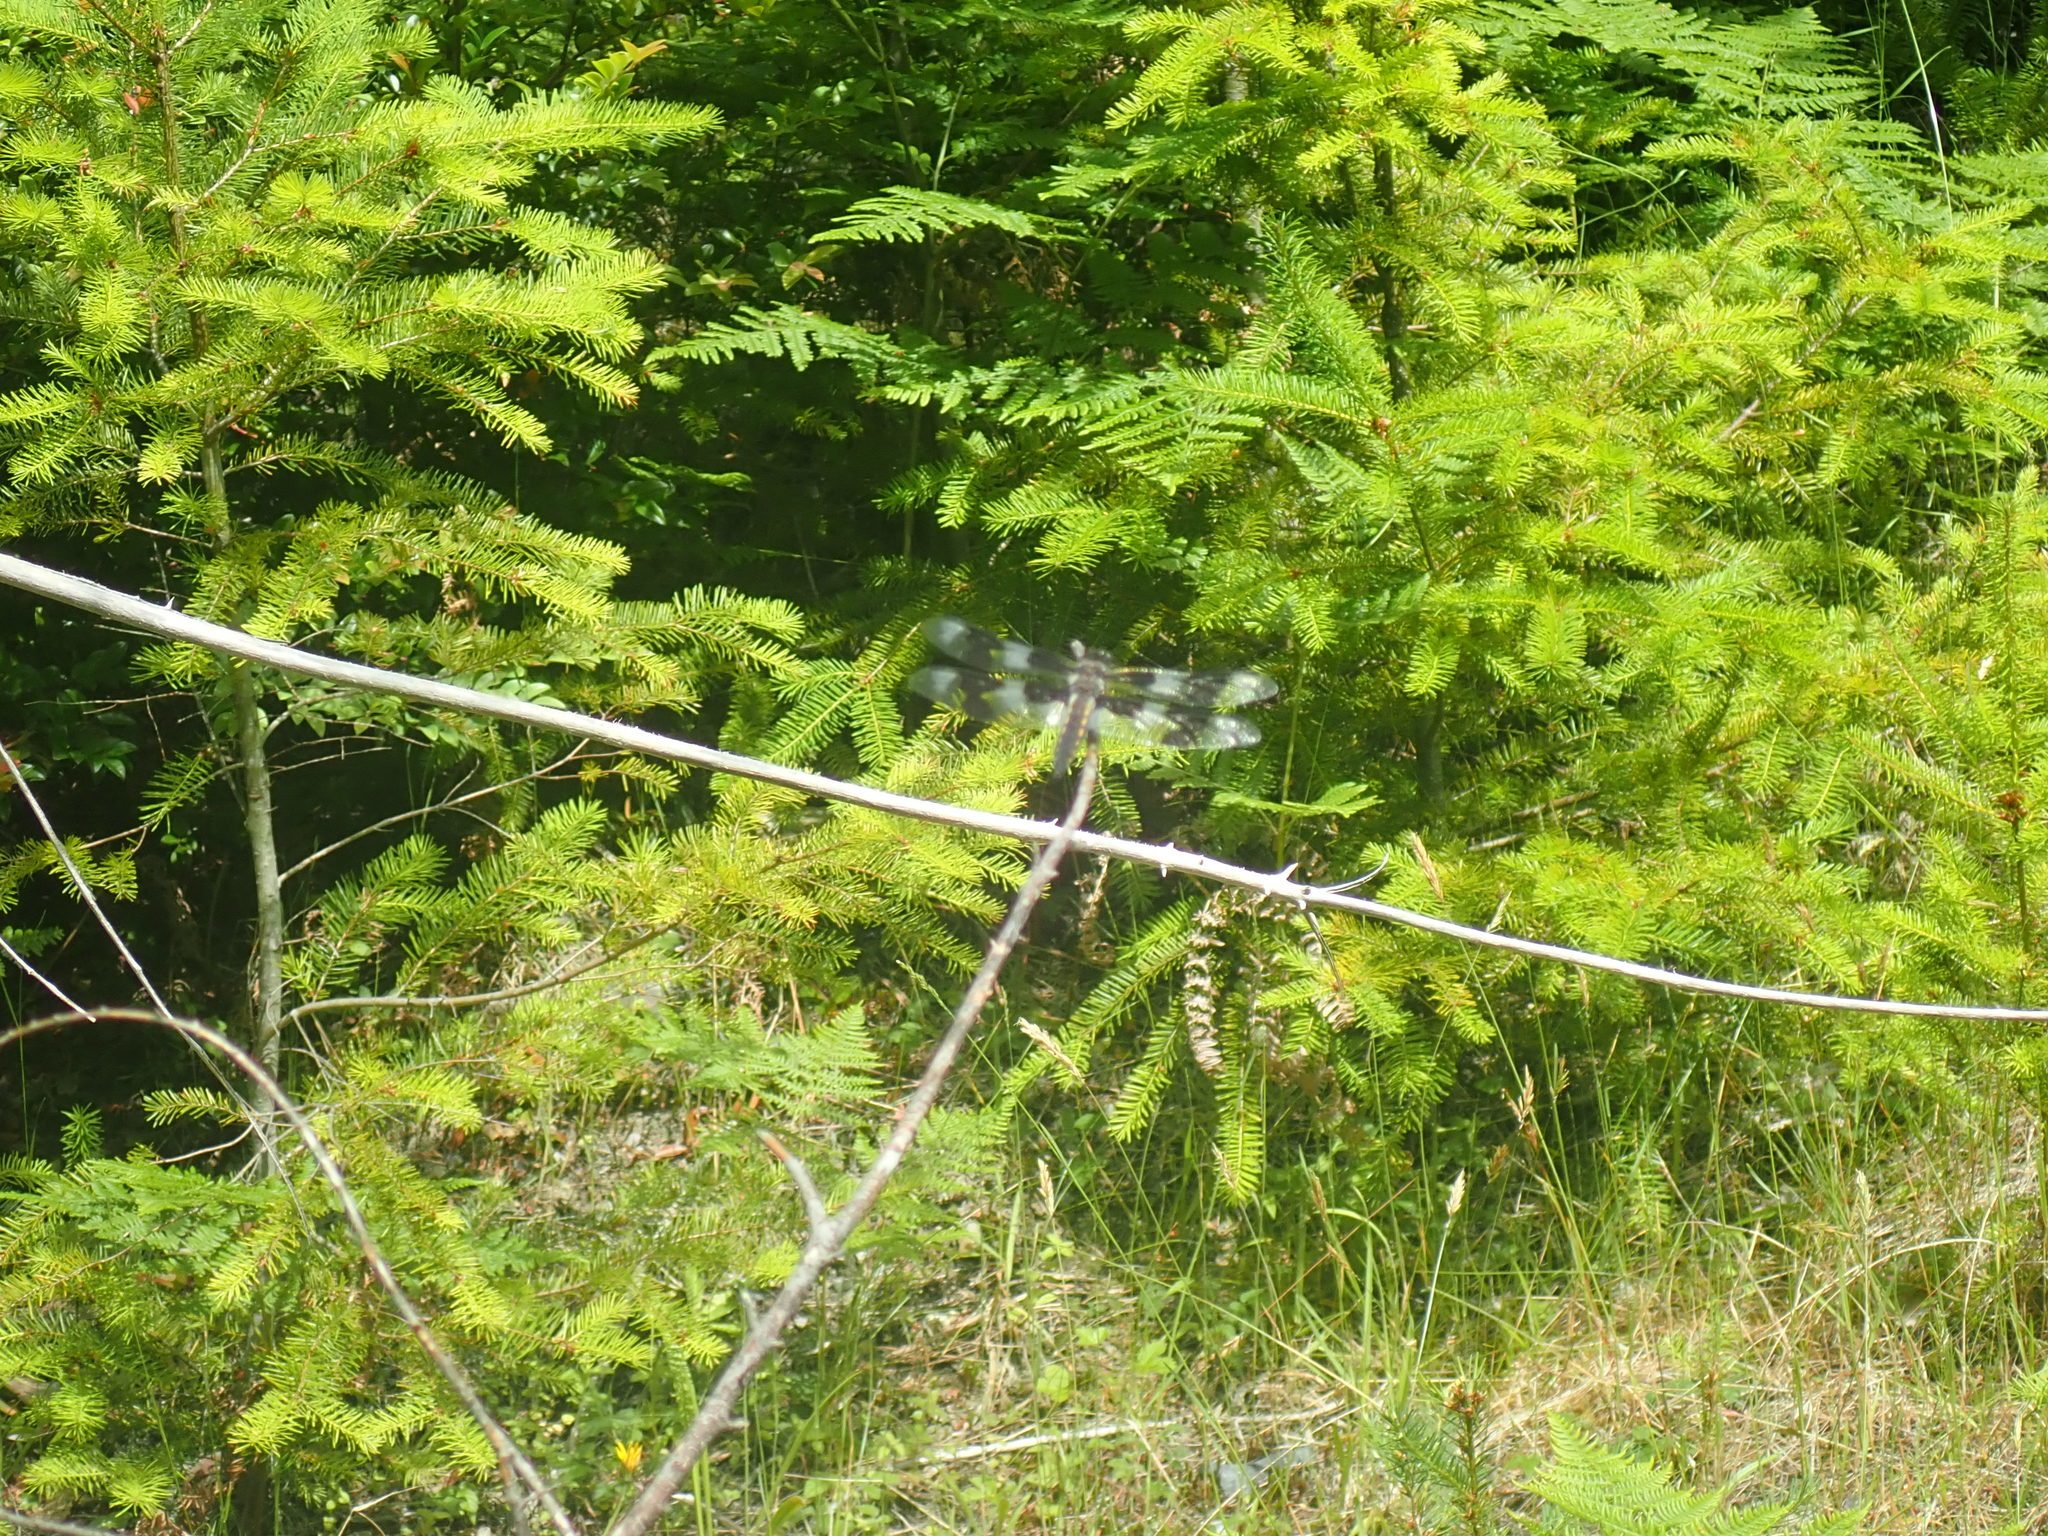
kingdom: Animalia
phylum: Arthropoda
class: Insecta
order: Odonata
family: Libellulidae
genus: Libellula
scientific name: Libellula forensis
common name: Eight-spotted skimmer
